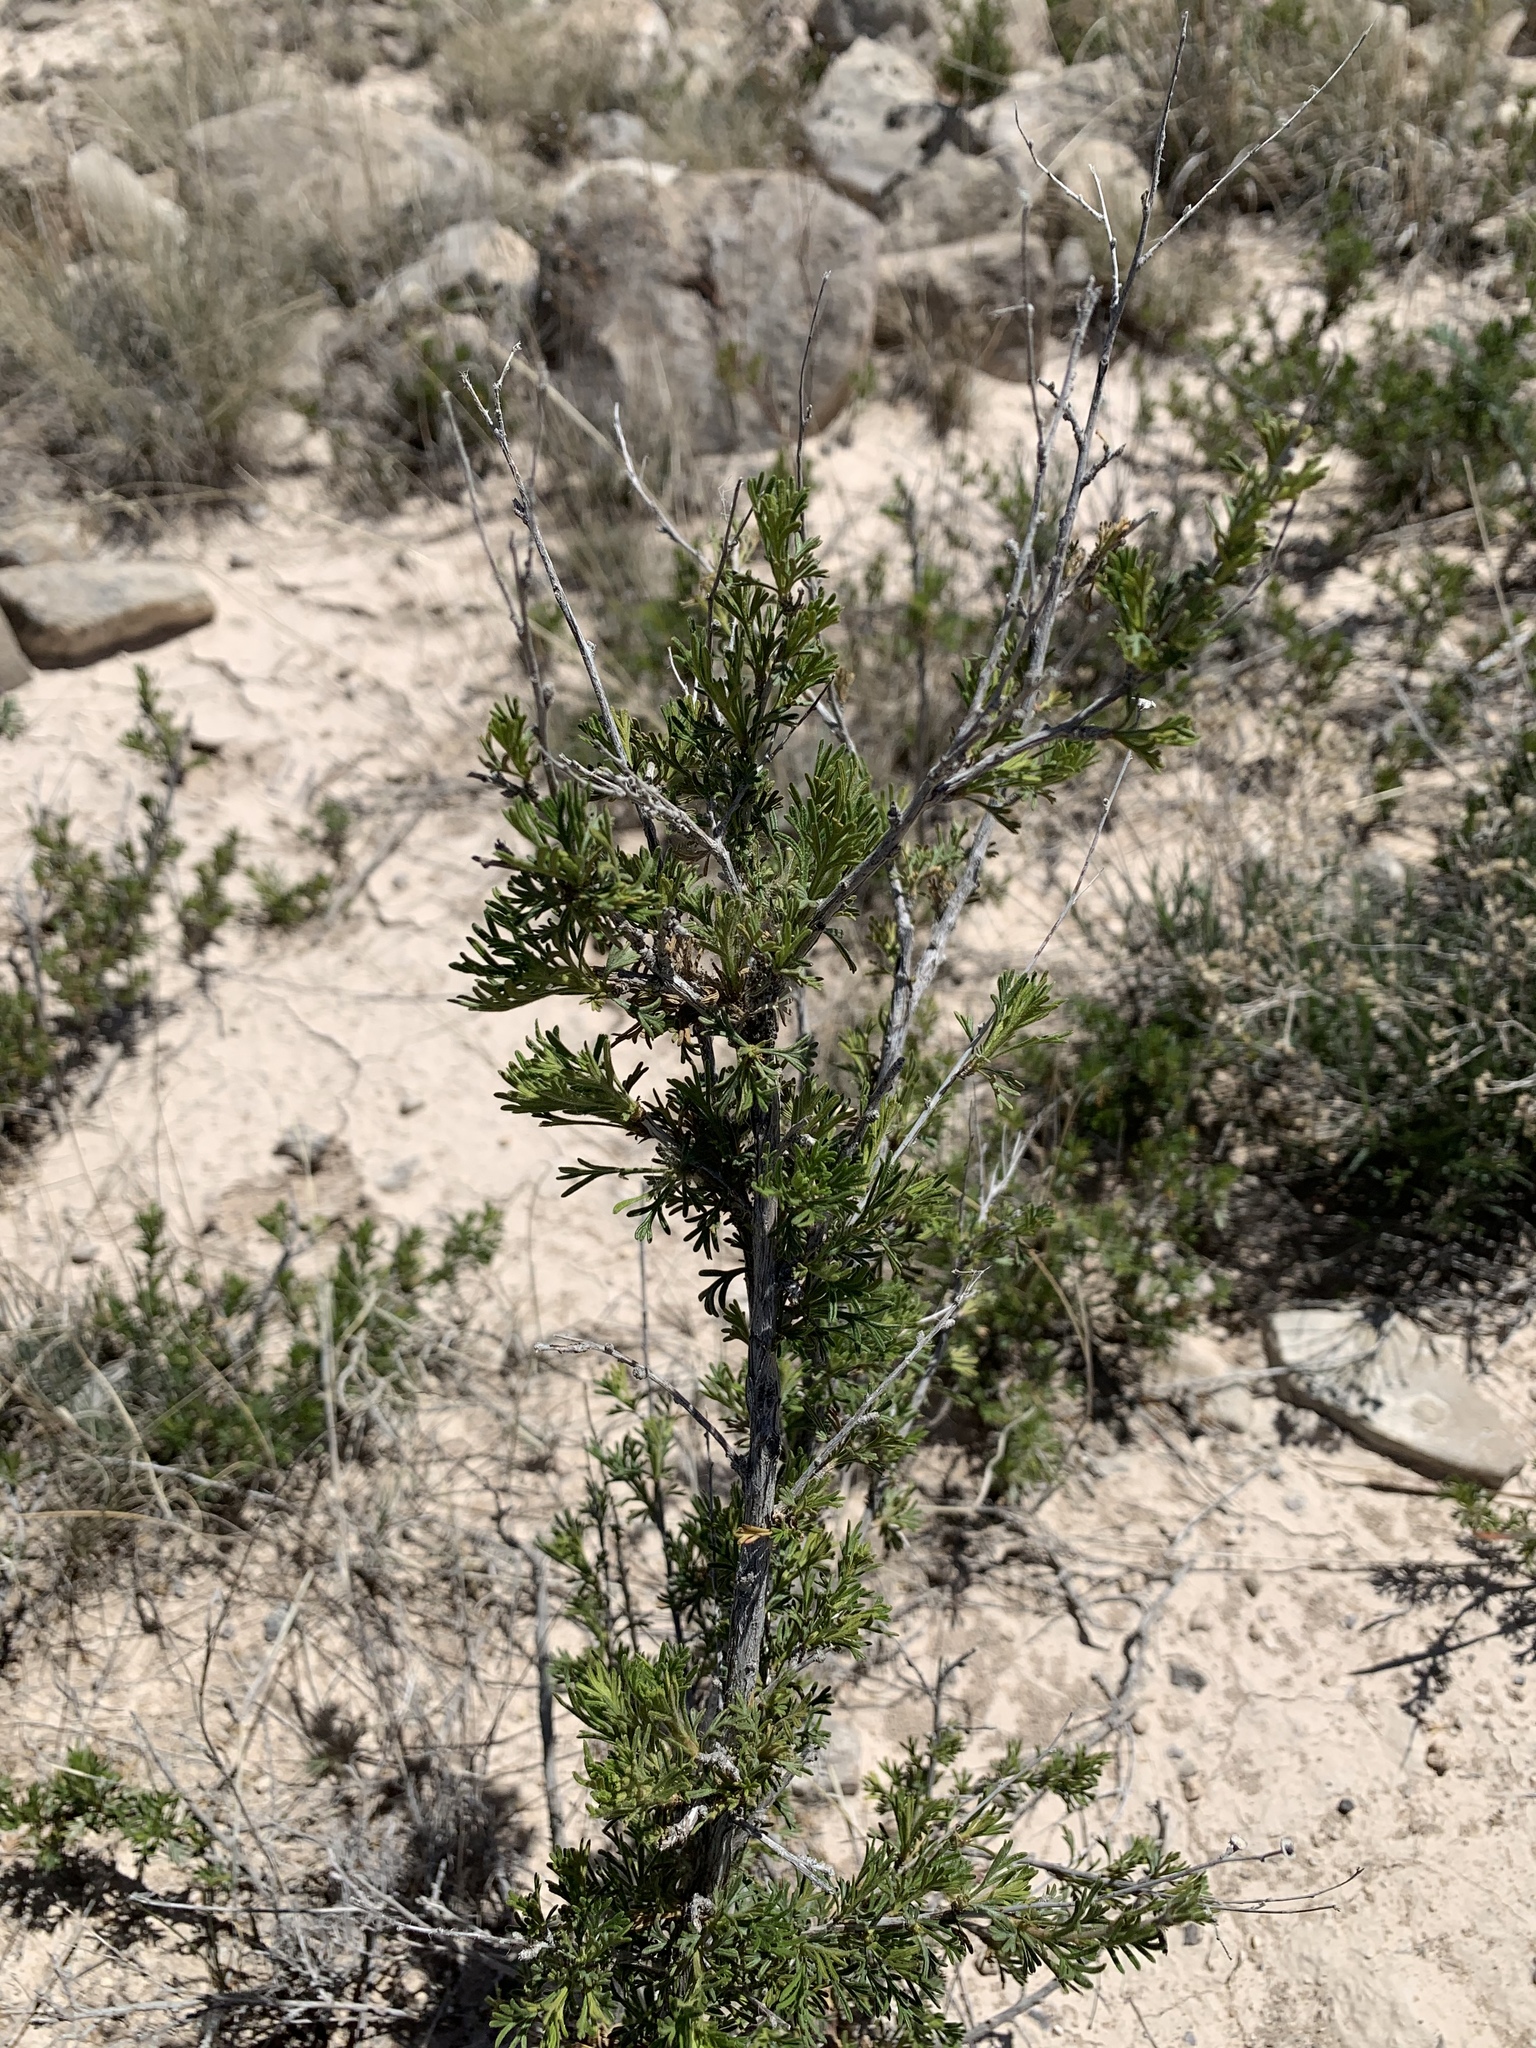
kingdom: Plantae
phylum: Tracheophyta
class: Magnoliopsida
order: Rosales
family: Rosaceae
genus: Fallugia
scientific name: Fallugia paradoxa
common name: Apache-plume
